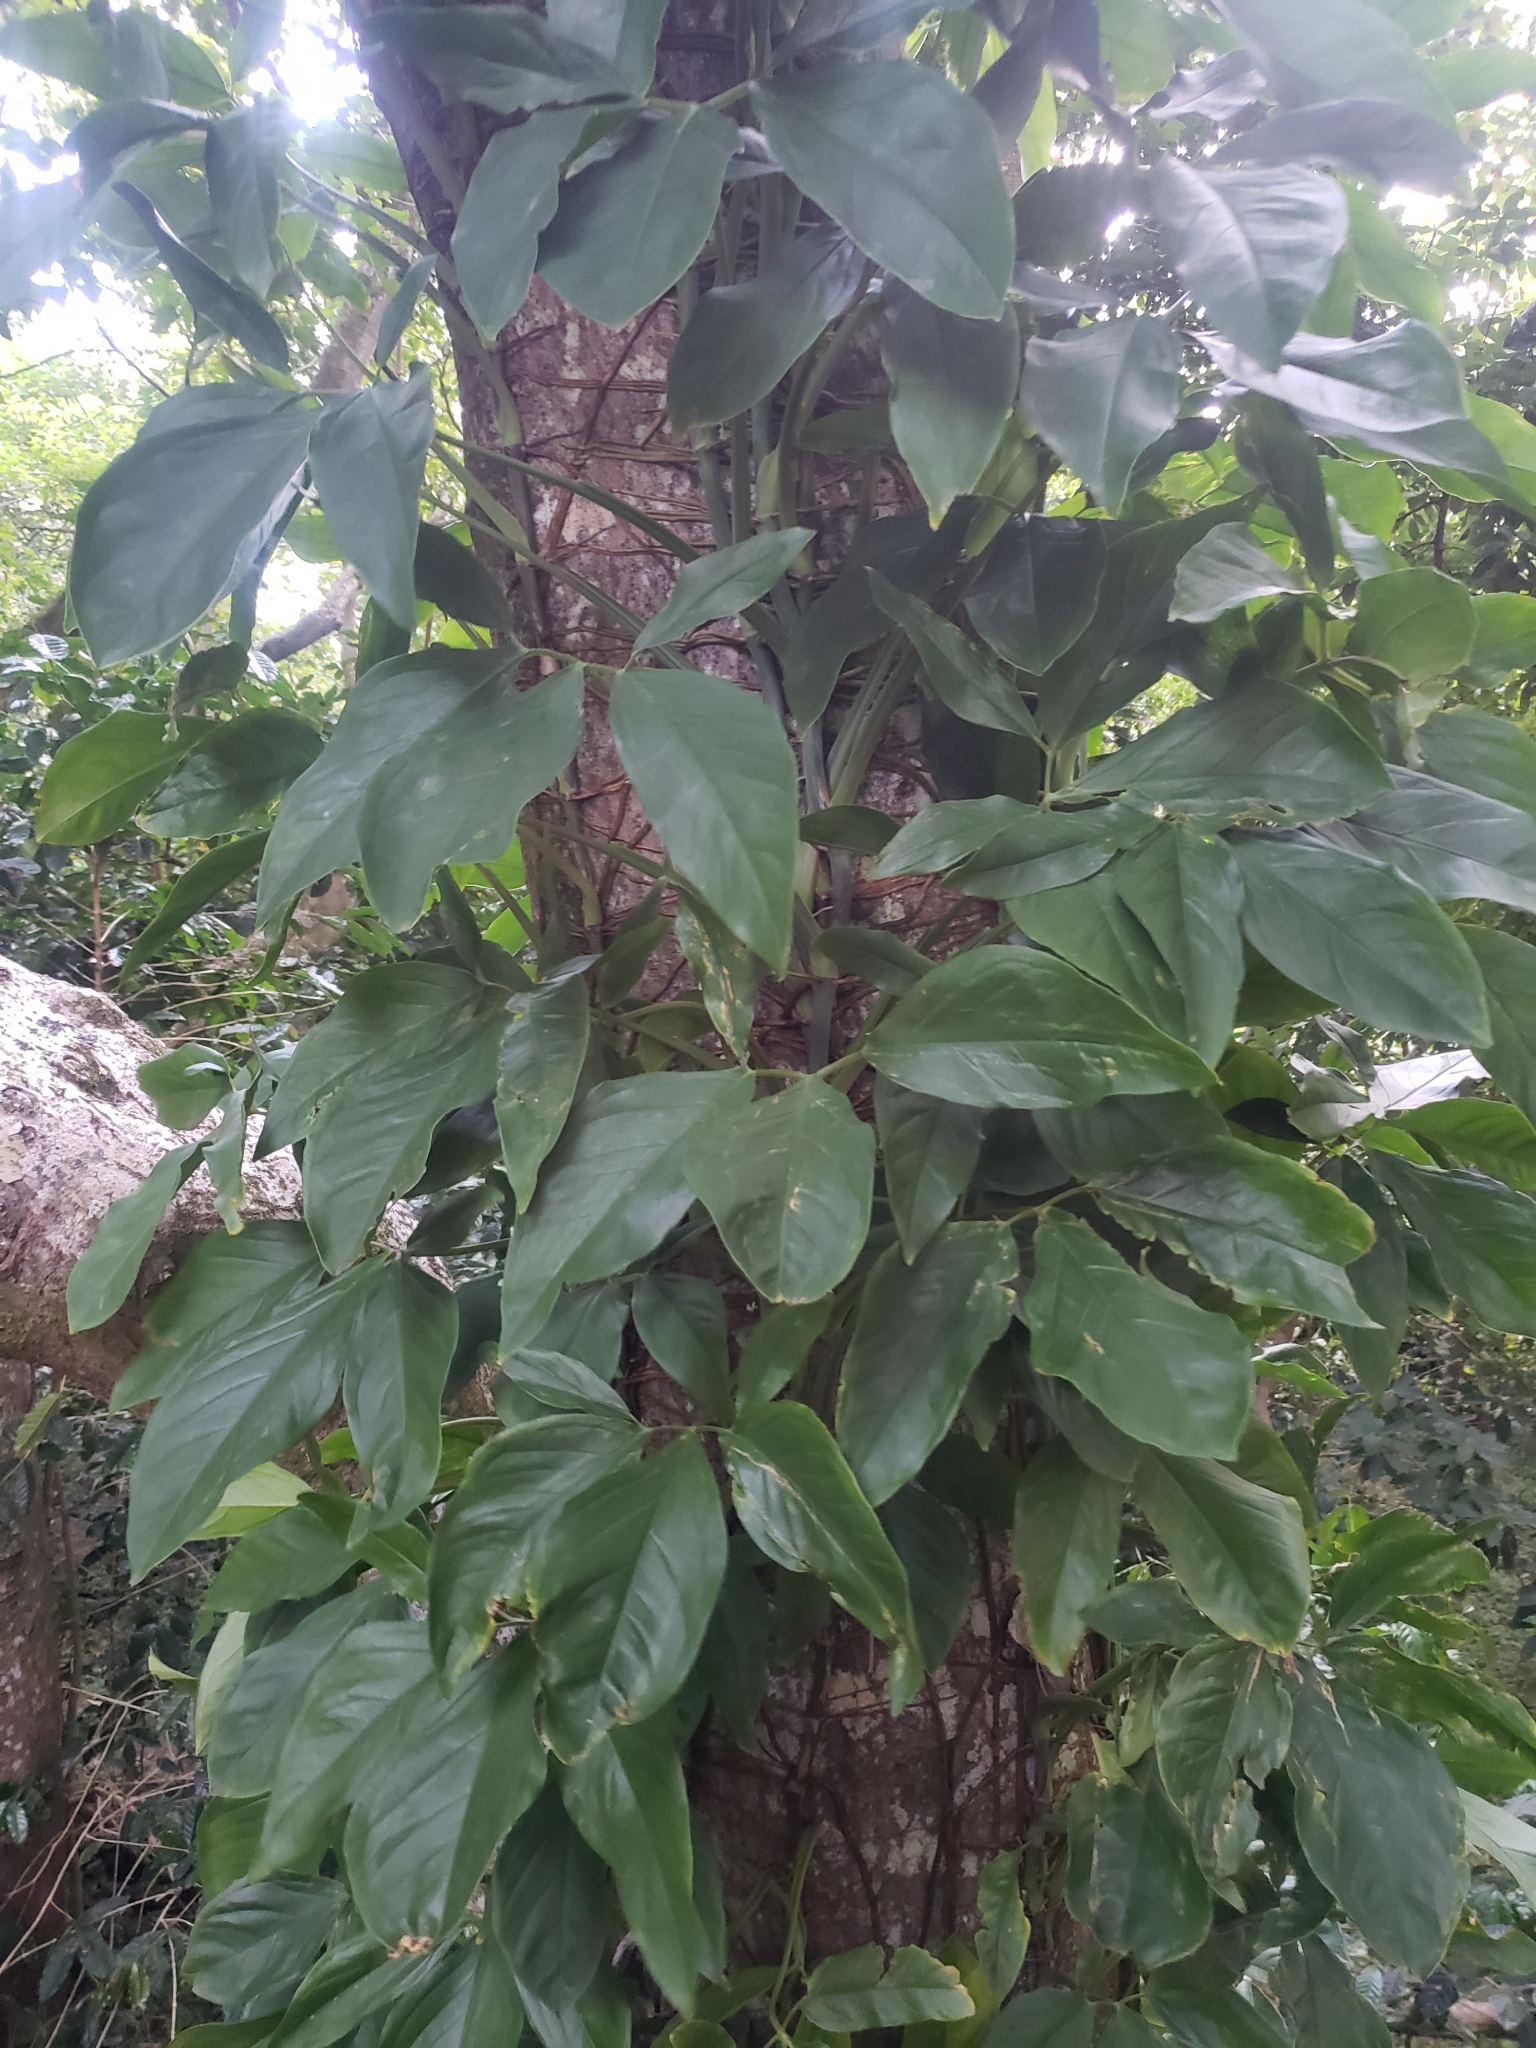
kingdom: Plantae
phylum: Tracheophyta
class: Liliopsida
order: Alismatales
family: Araceae
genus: Syngonium
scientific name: Syngonium podophyllum
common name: American evergreen
